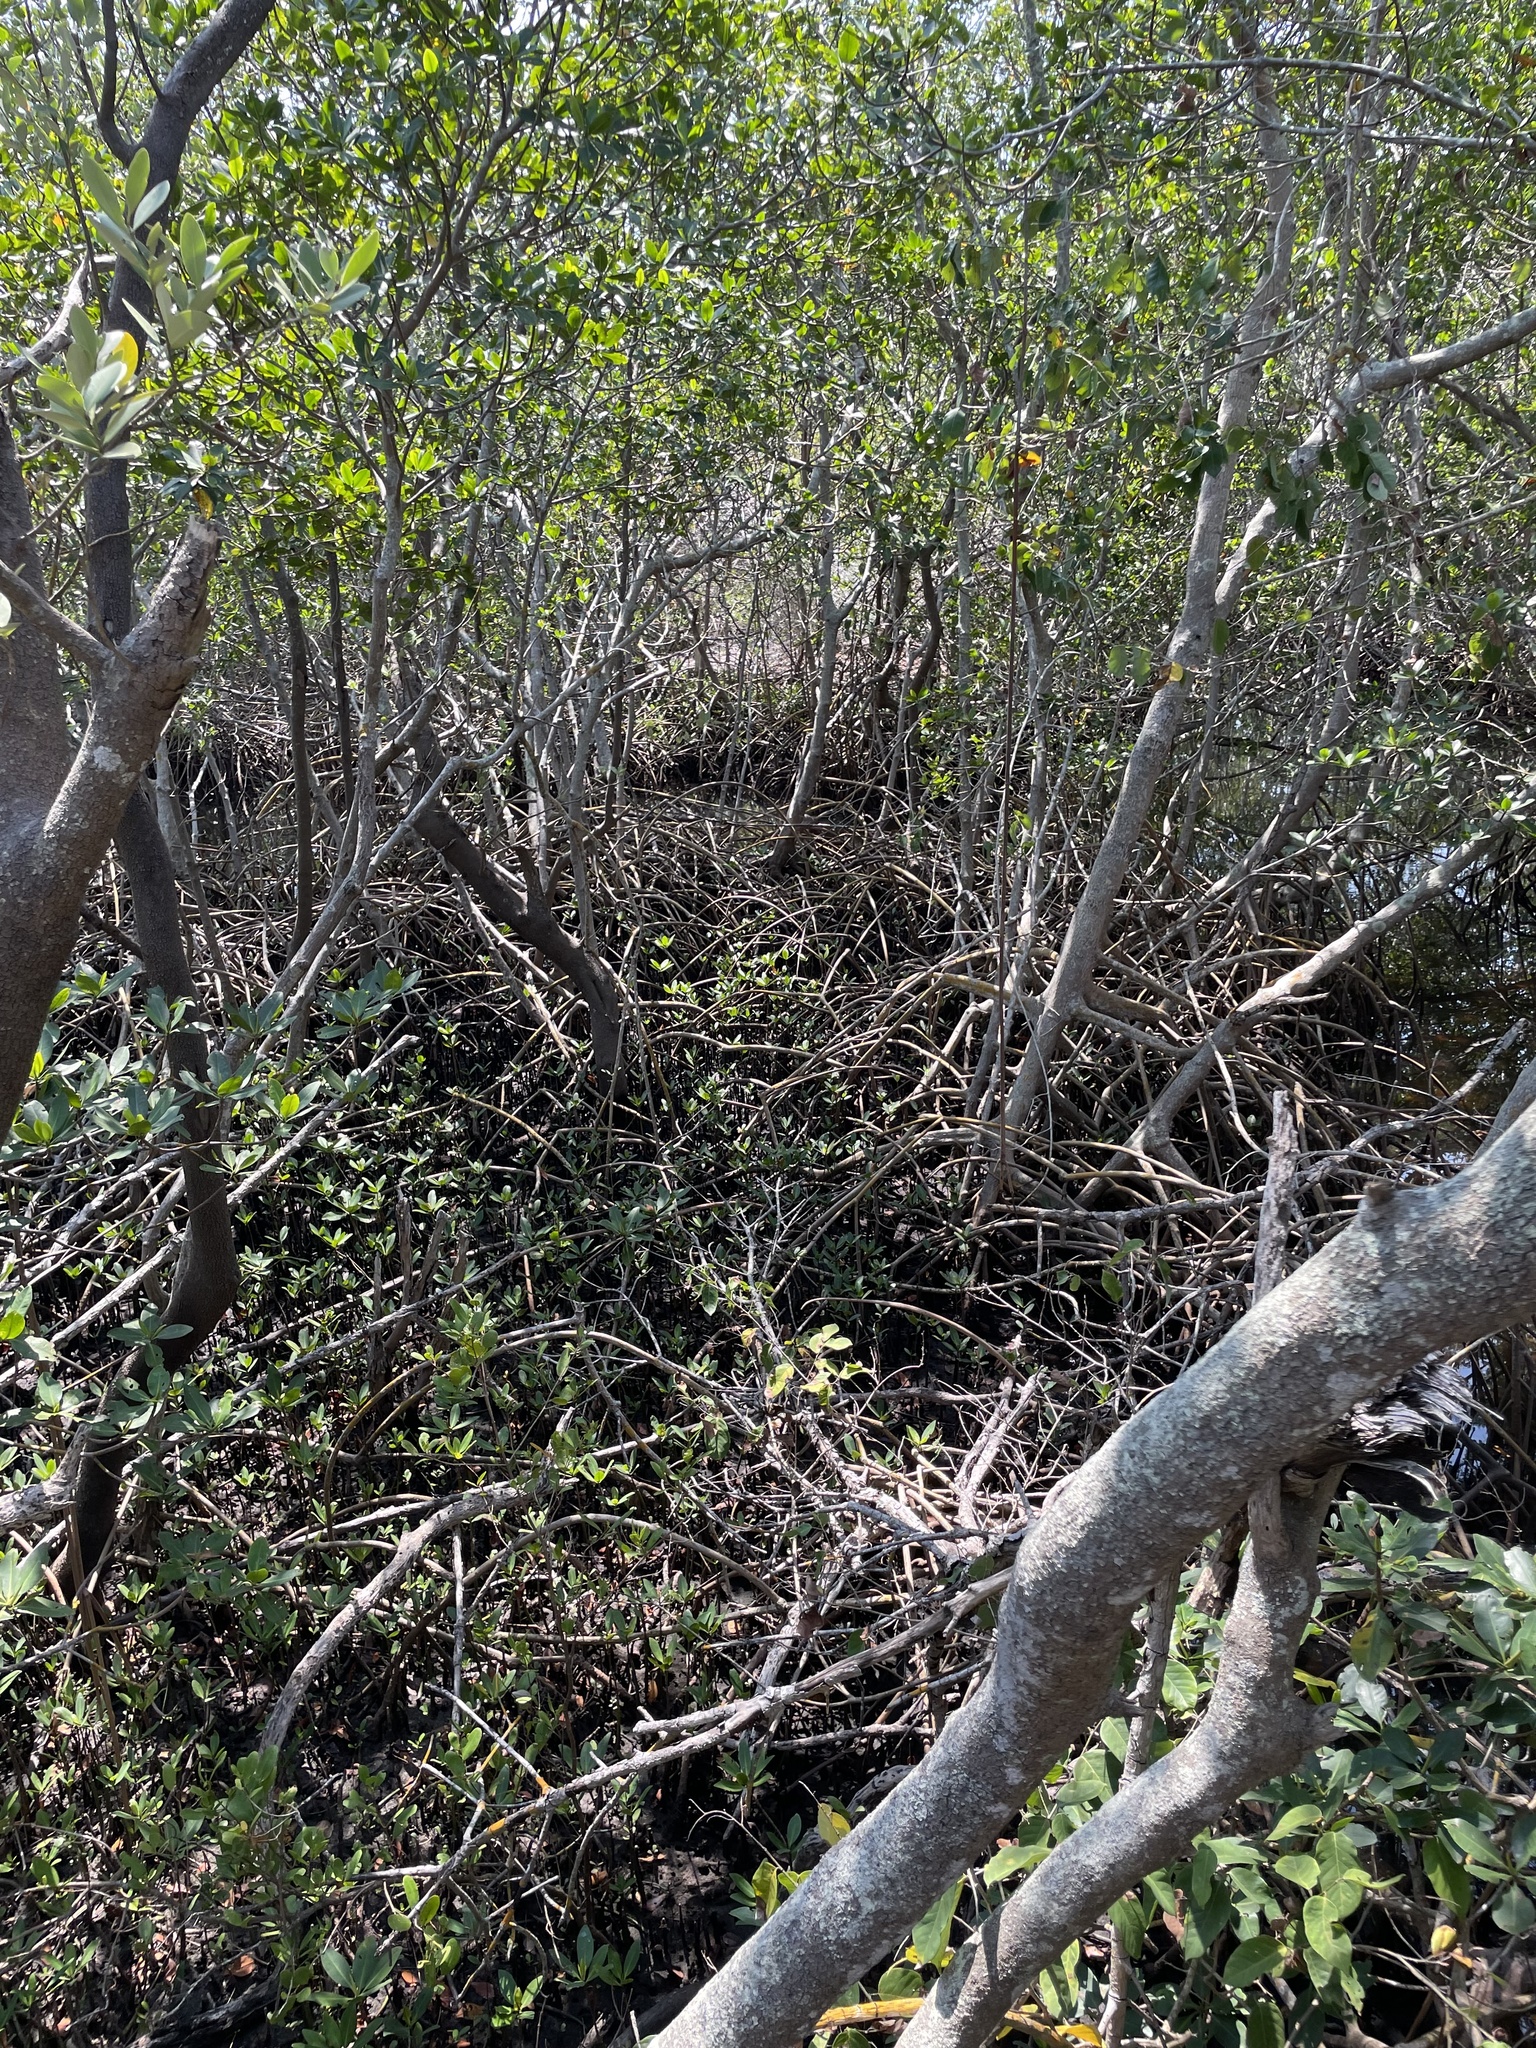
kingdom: Plantae
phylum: Tracheophyta
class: Magnoliopsida
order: Malpighiales
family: Rhizophoraceae
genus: Rhizophora
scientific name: Rhizophora mangle
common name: Red mangrove
